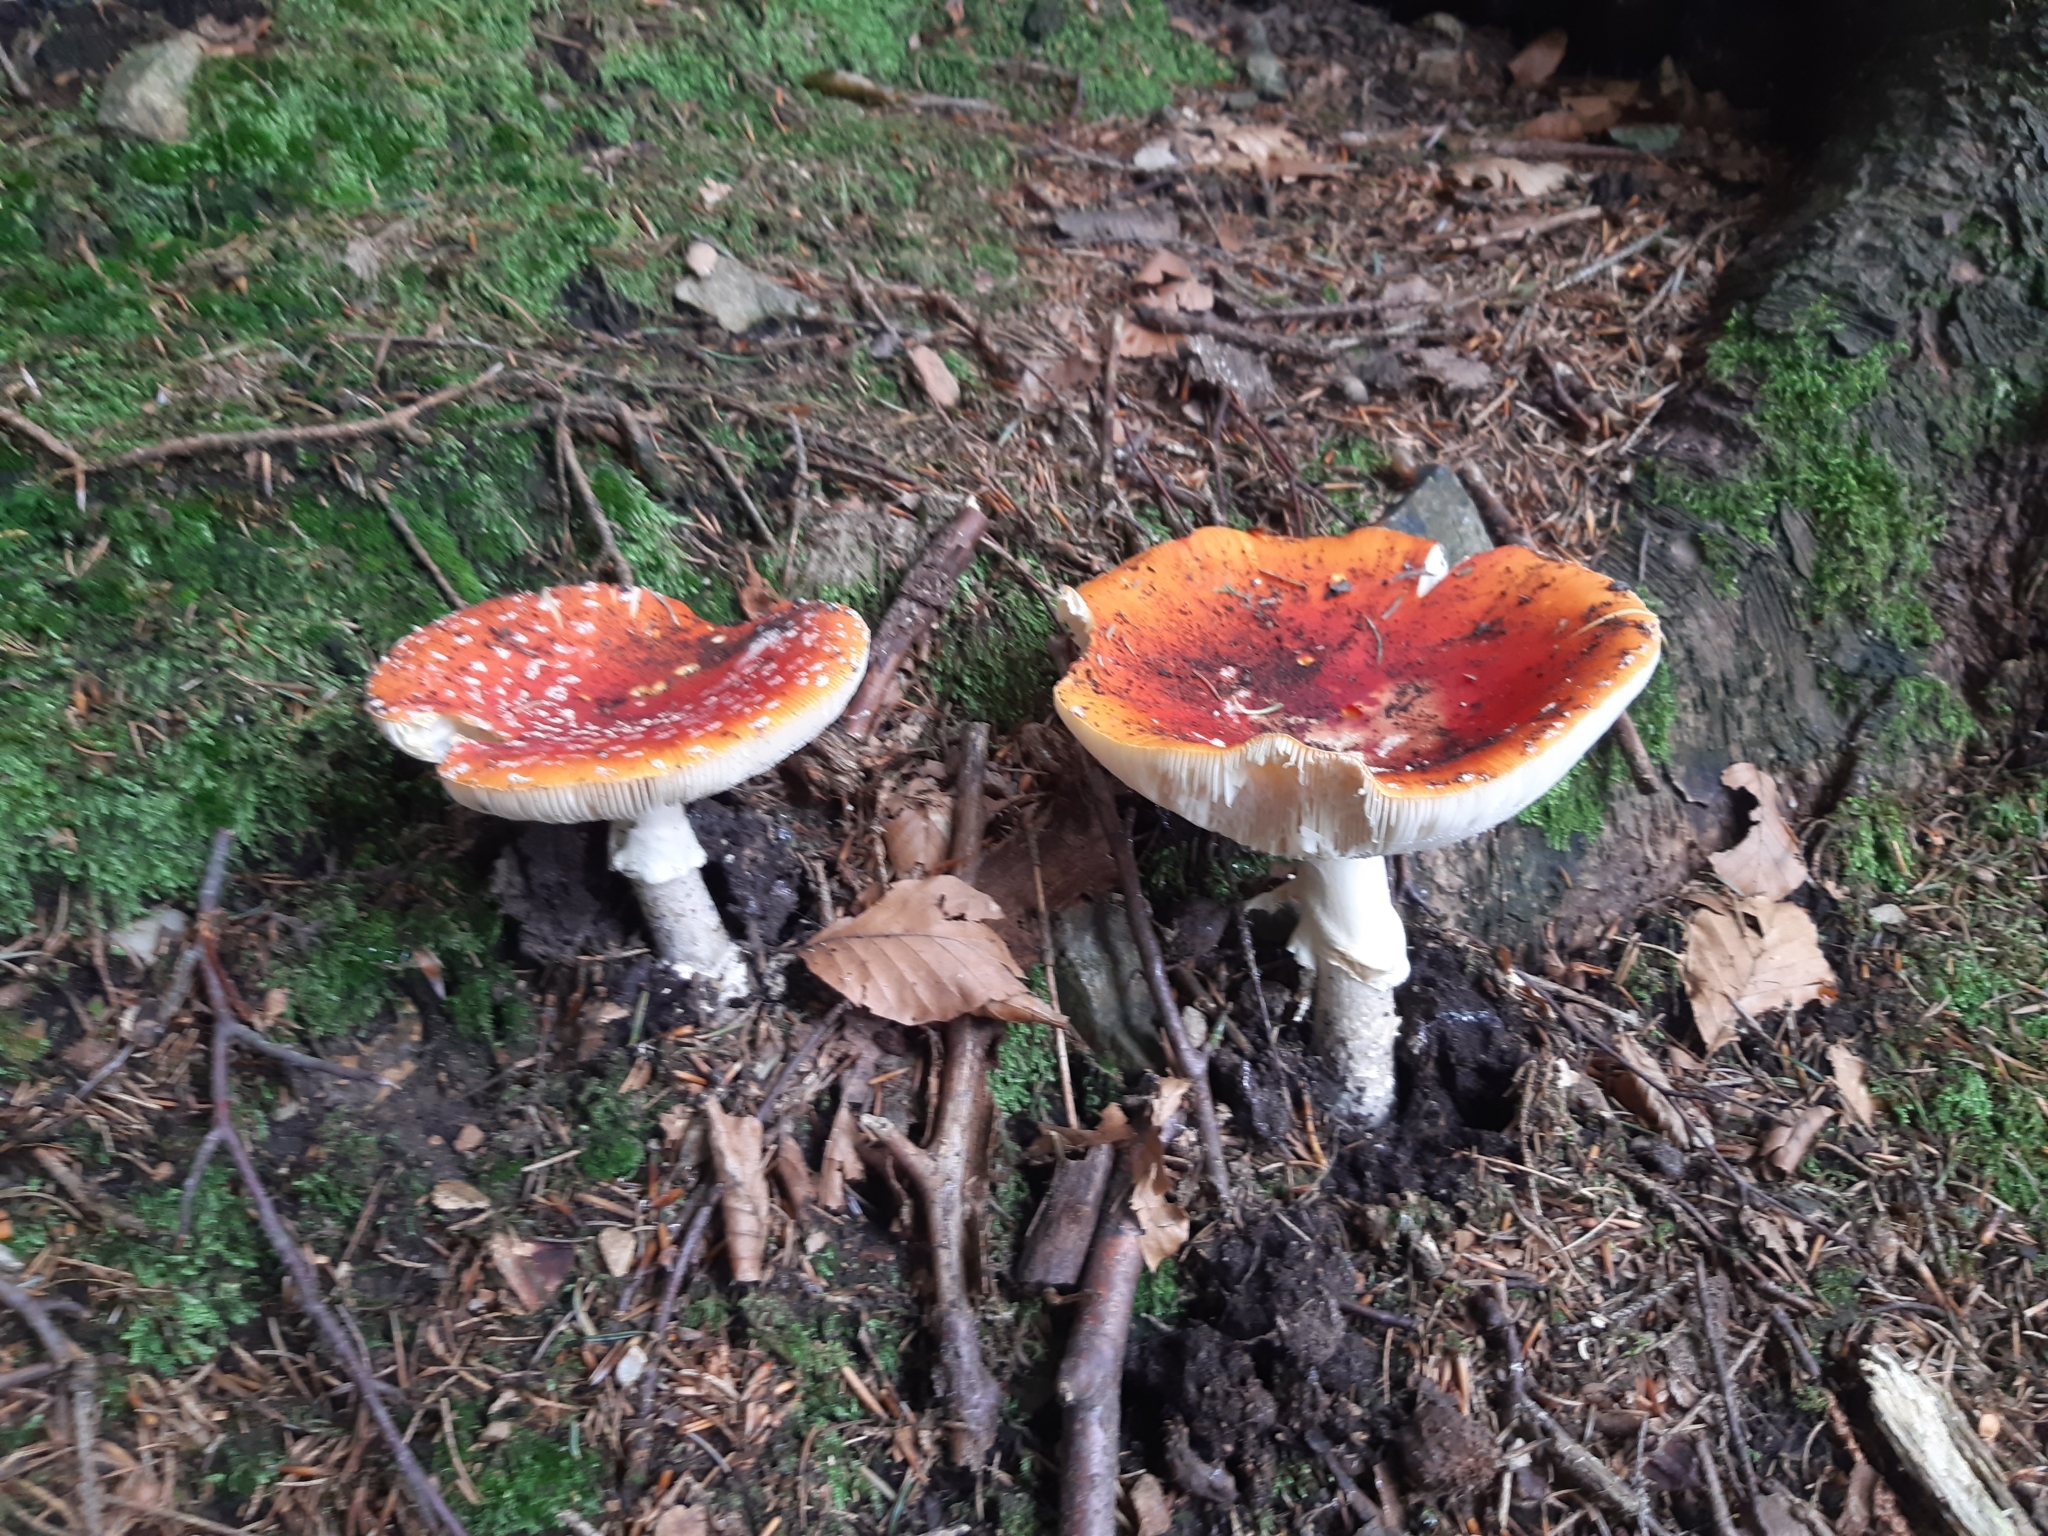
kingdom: Fungi
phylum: Basidiomycota
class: Agaricomycetes
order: Agaricales
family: Amanitaceae
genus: Amanita
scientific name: Amanita muscaria
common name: Fly agaric
